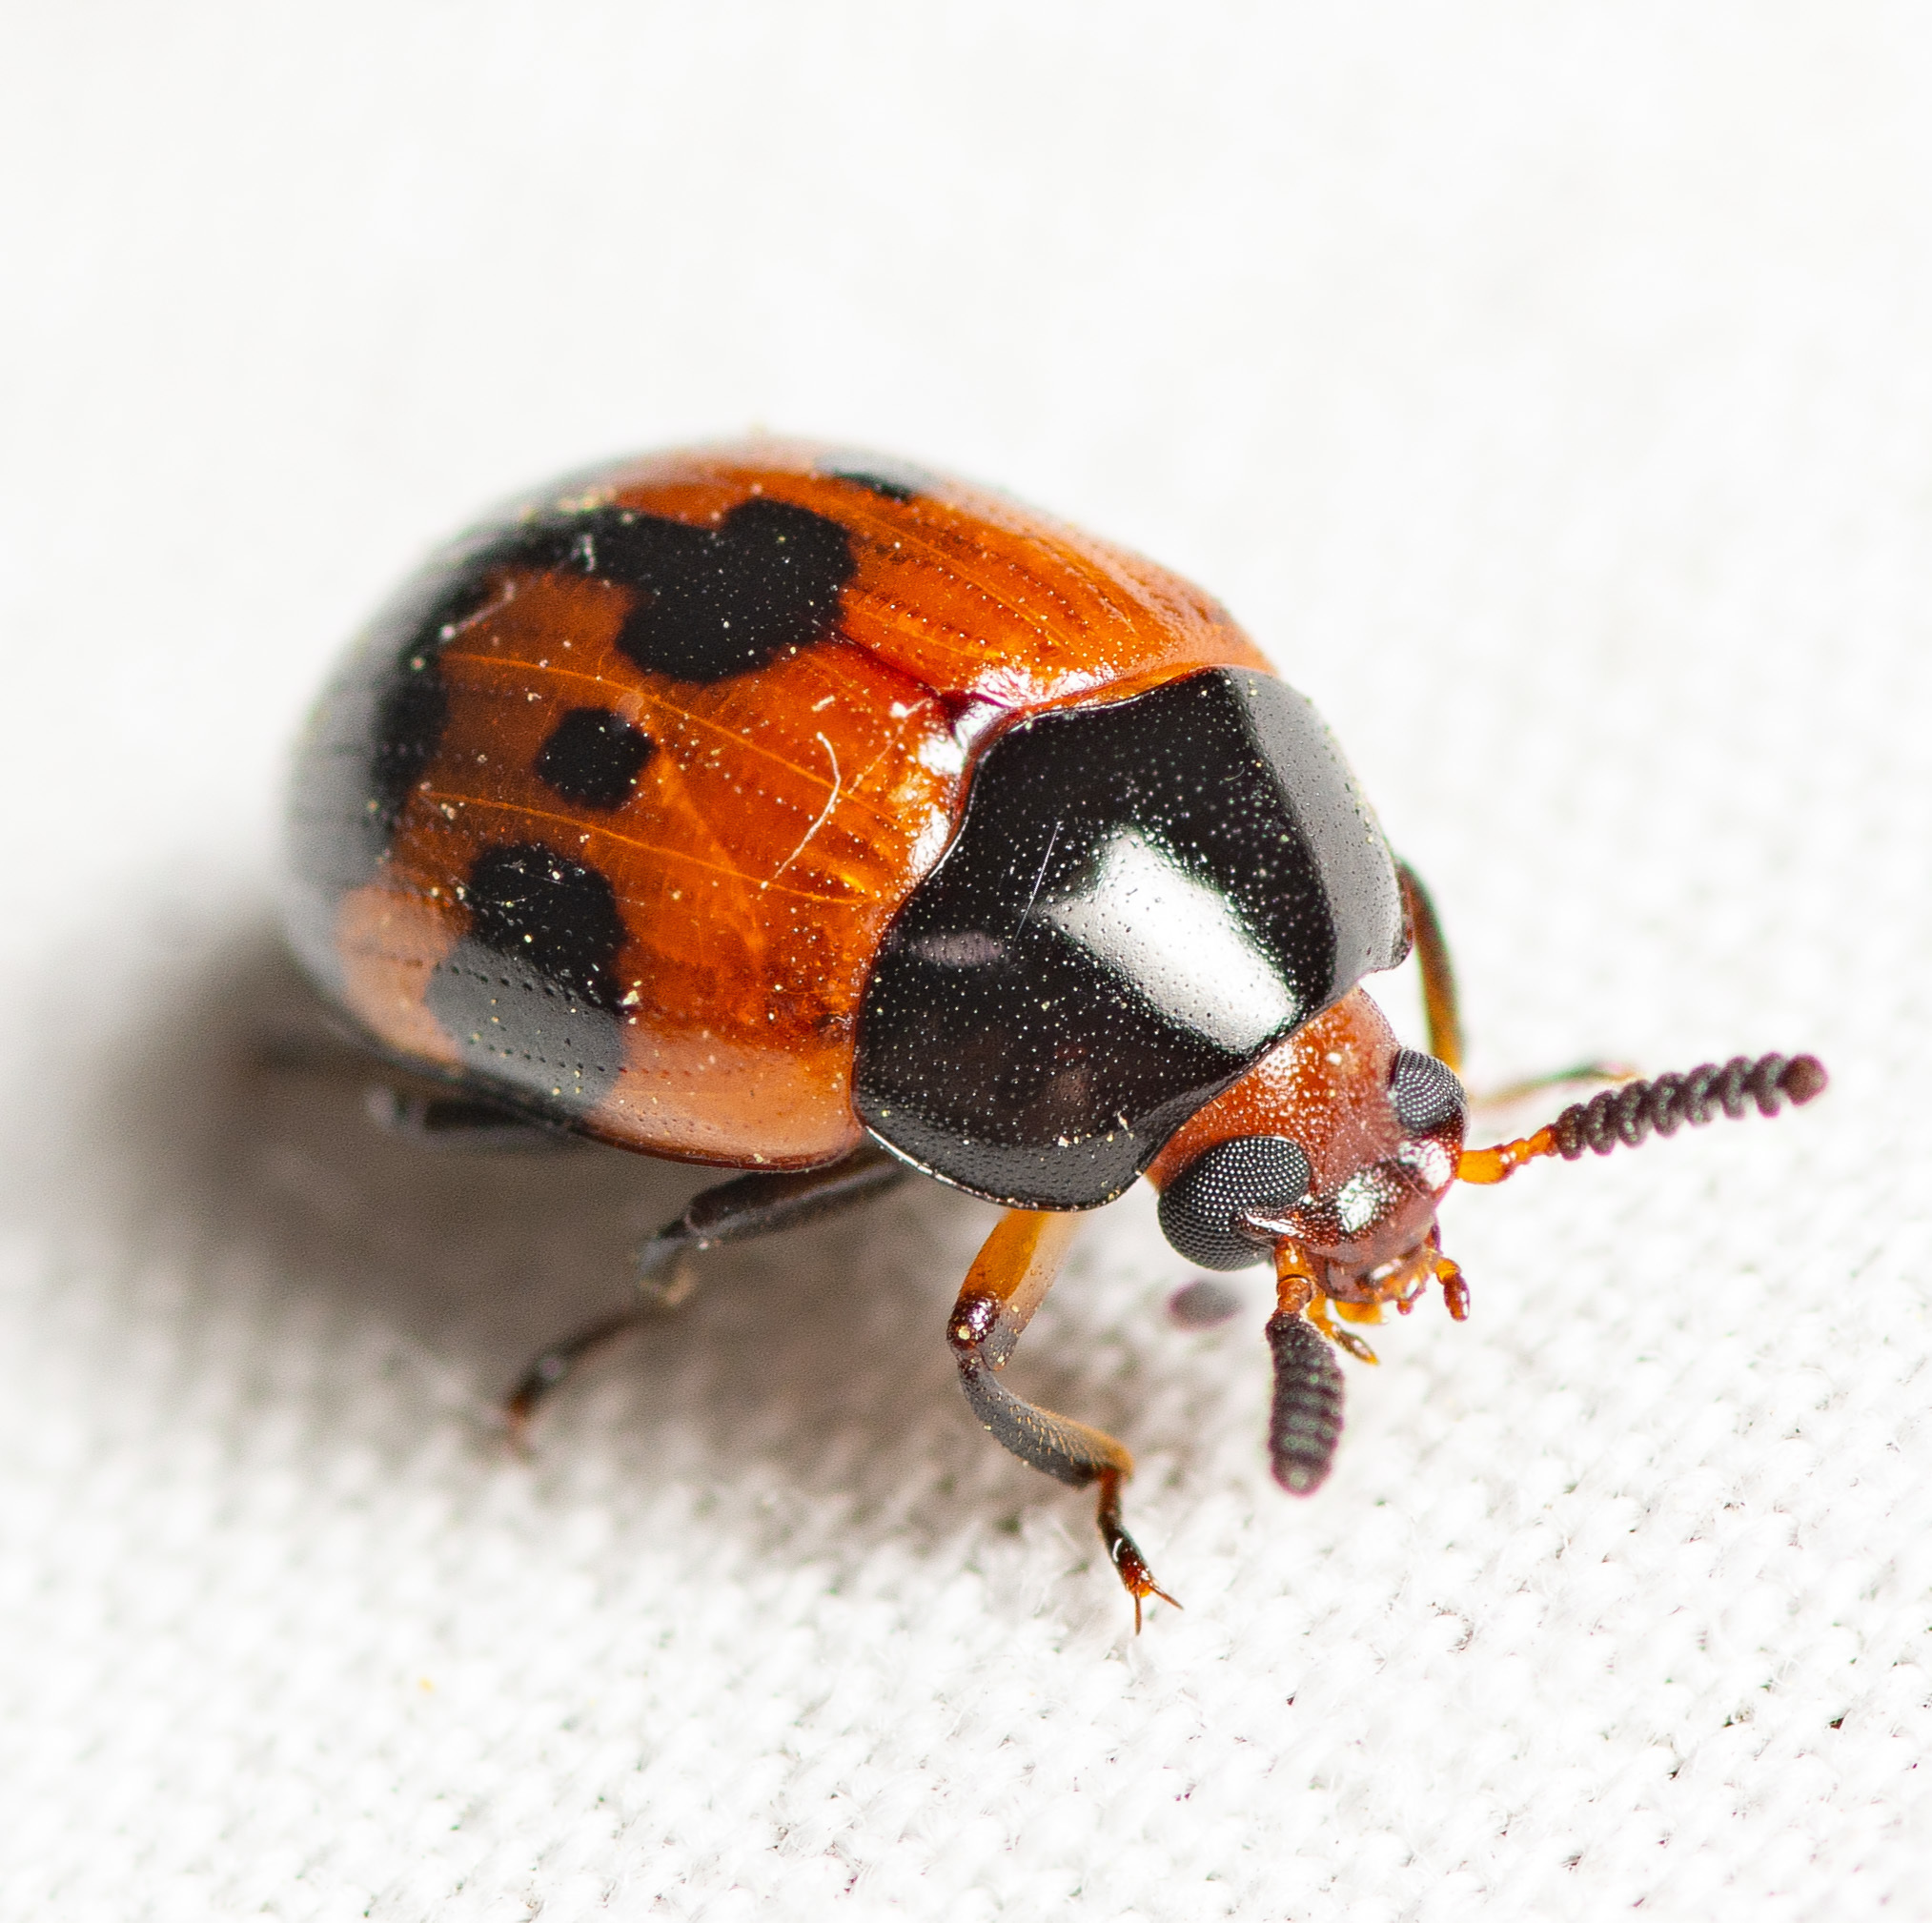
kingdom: Animalia
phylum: Arthropoda
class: Insecta
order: Coleoptera
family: Tenebrionidae
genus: Diaperis
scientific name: Diaperis nigronotata
